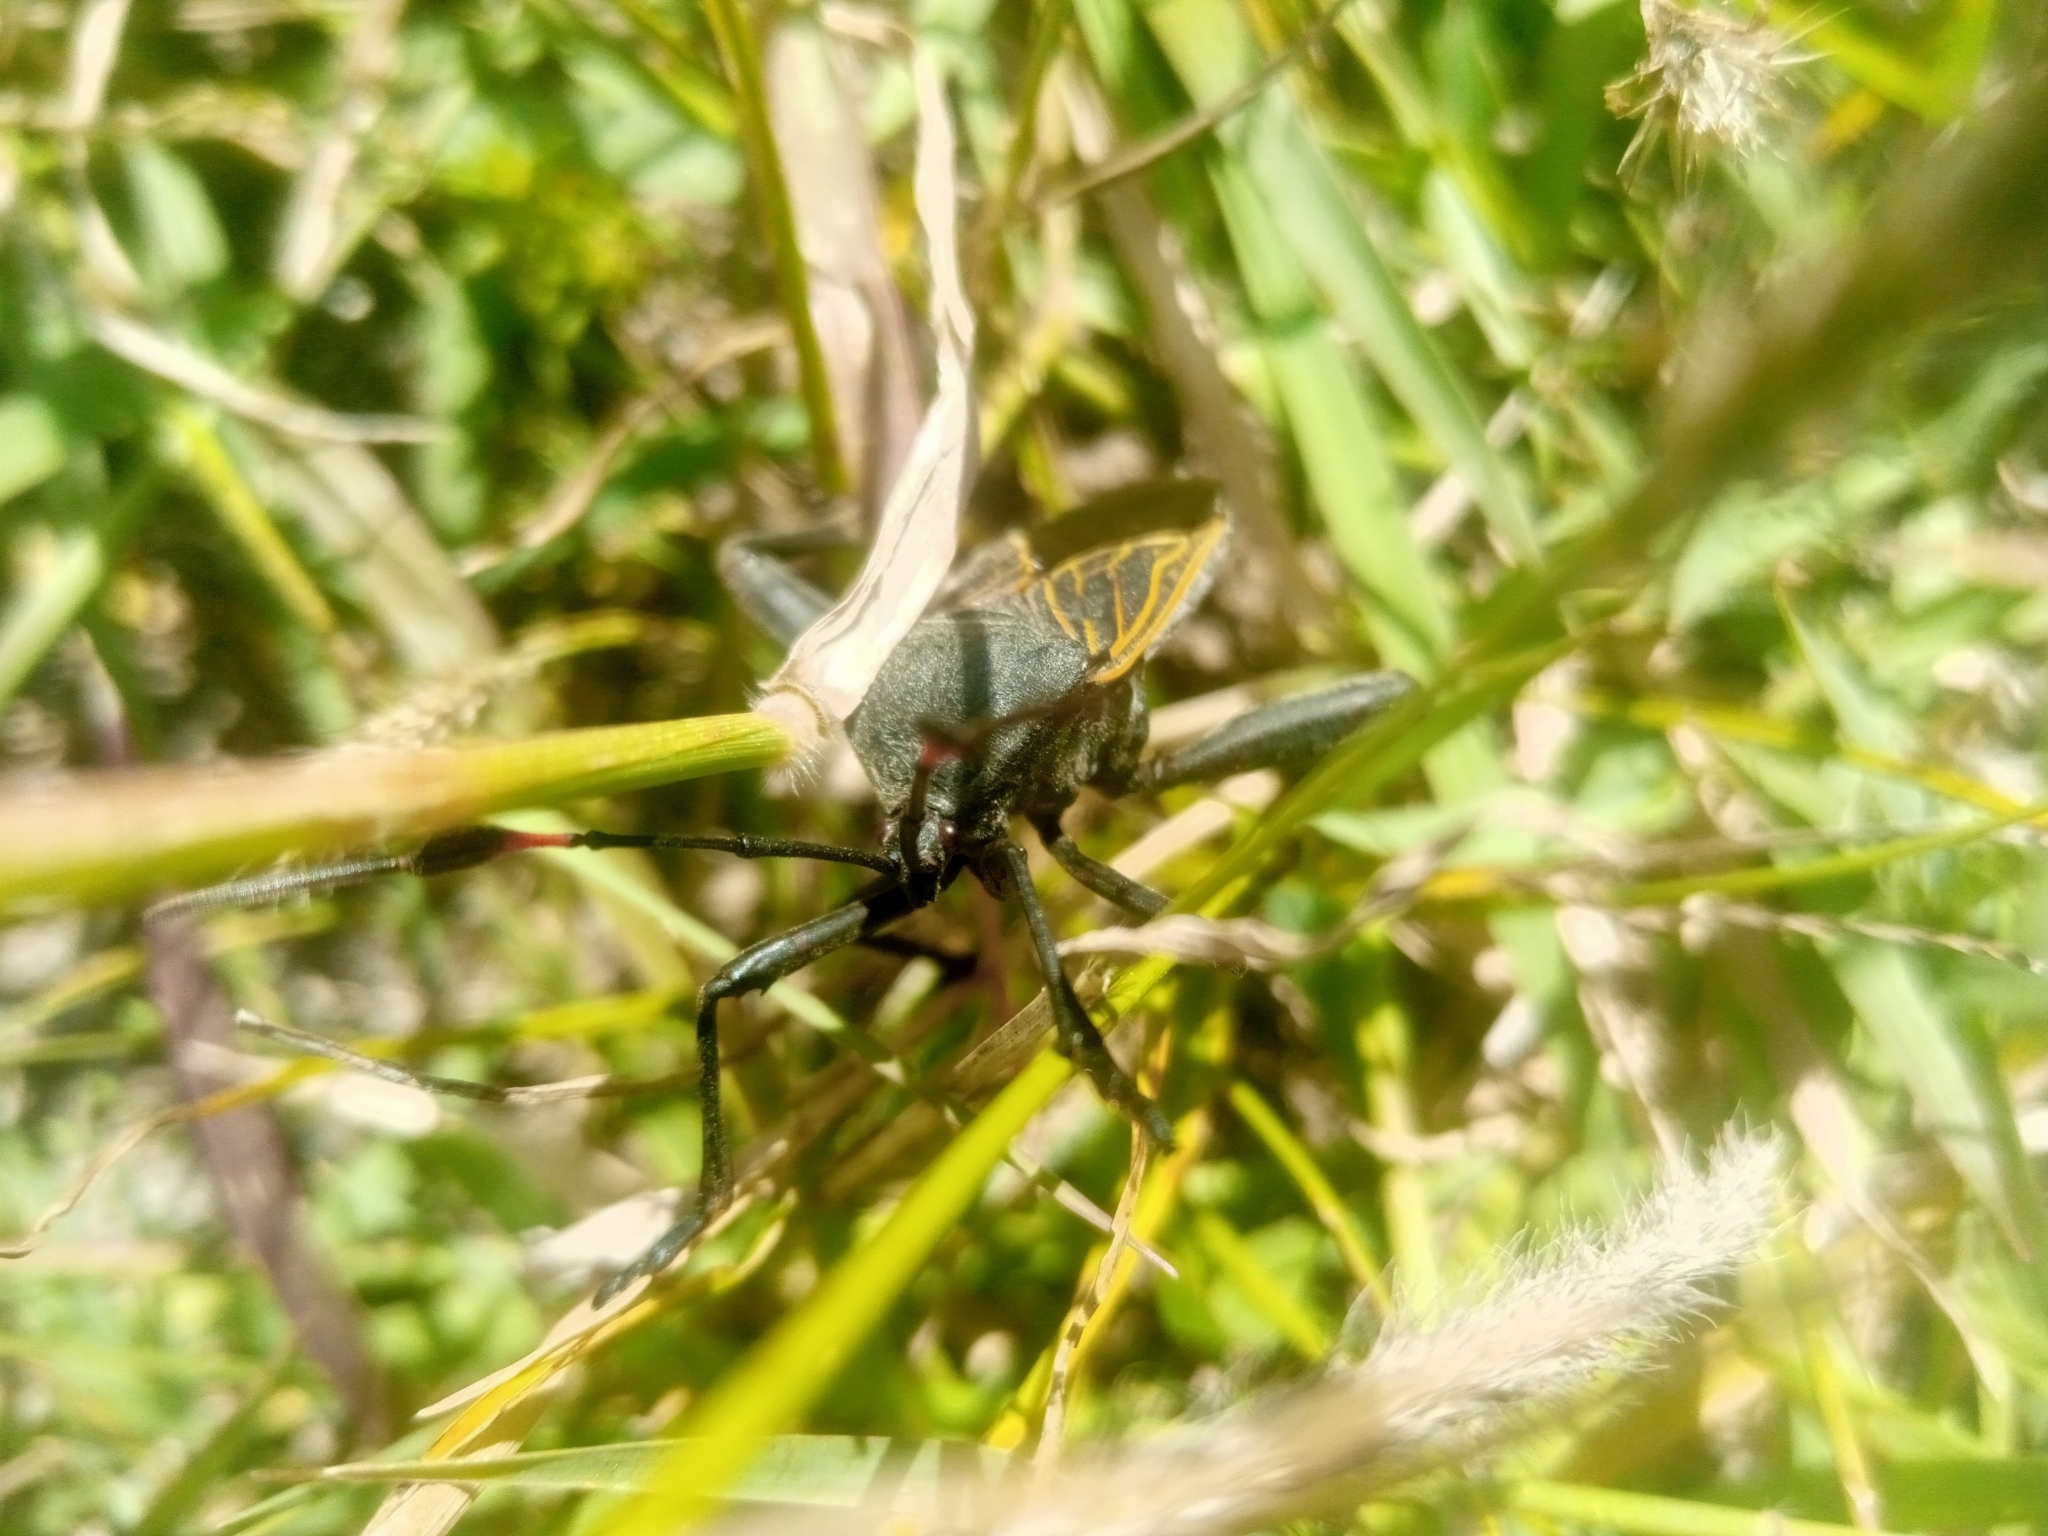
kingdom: Animalia
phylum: Arthropoda
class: Insecta
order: Hemiptera
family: Coreidae
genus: Thasus
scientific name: Thasus
